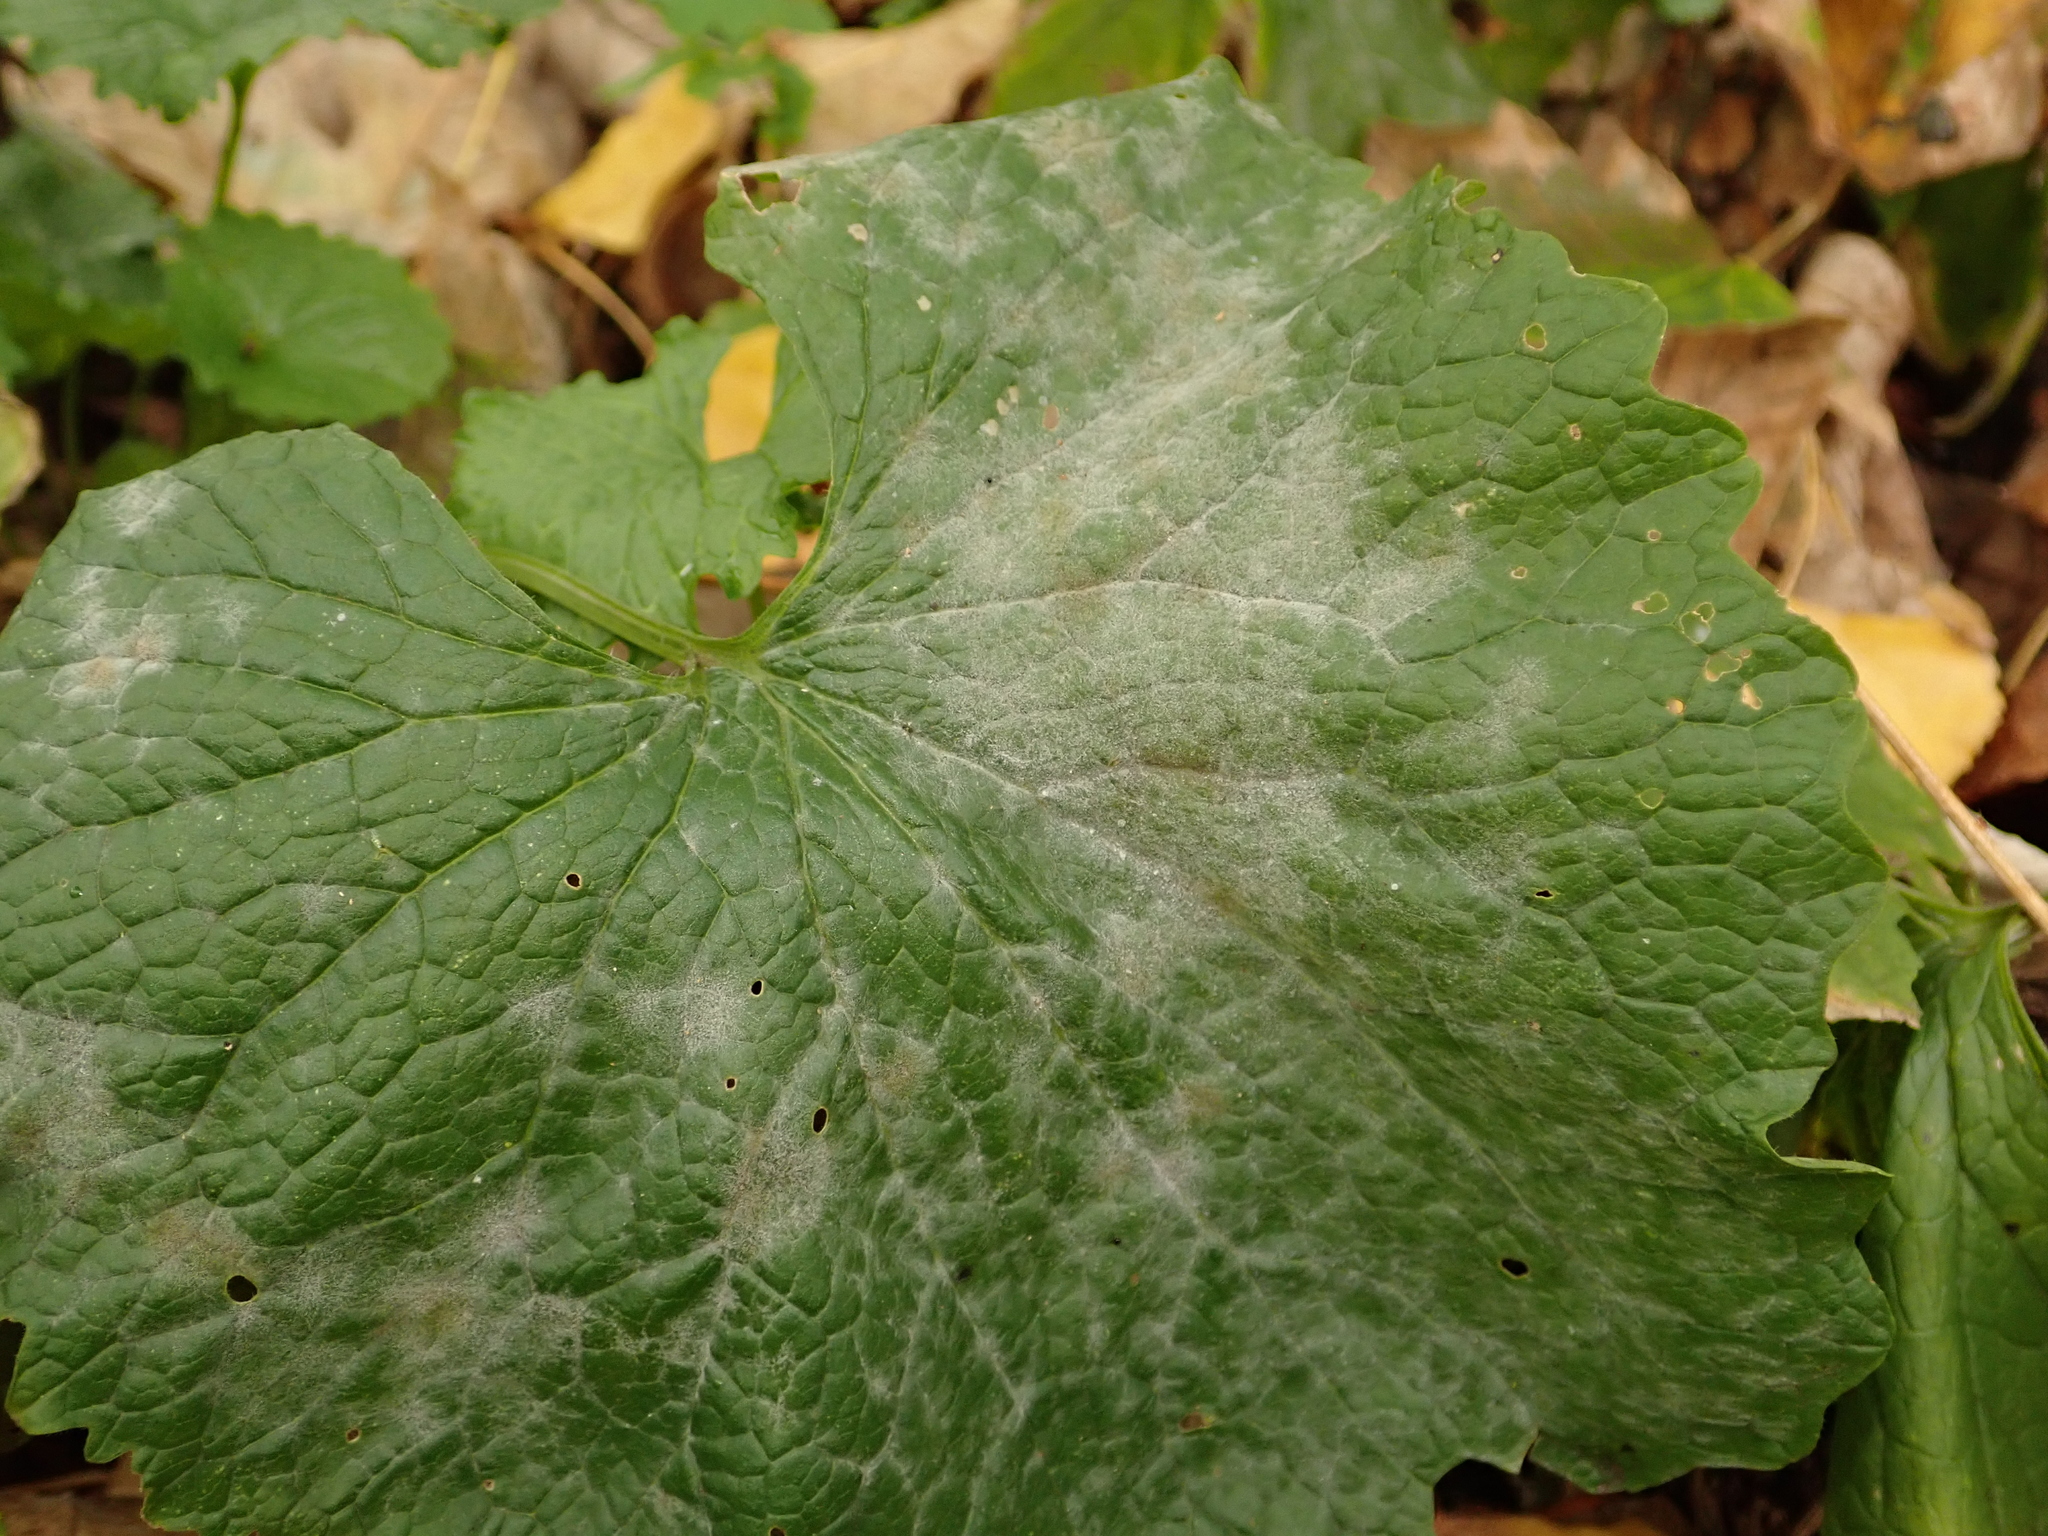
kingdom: Fungi
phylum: Ascomycota
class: Leotiomycetes
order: Helotiales
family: Erysiphaceae
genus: Erysiphe
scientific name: Erysiphe cruciferarum
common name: Brassica powdery mildew
